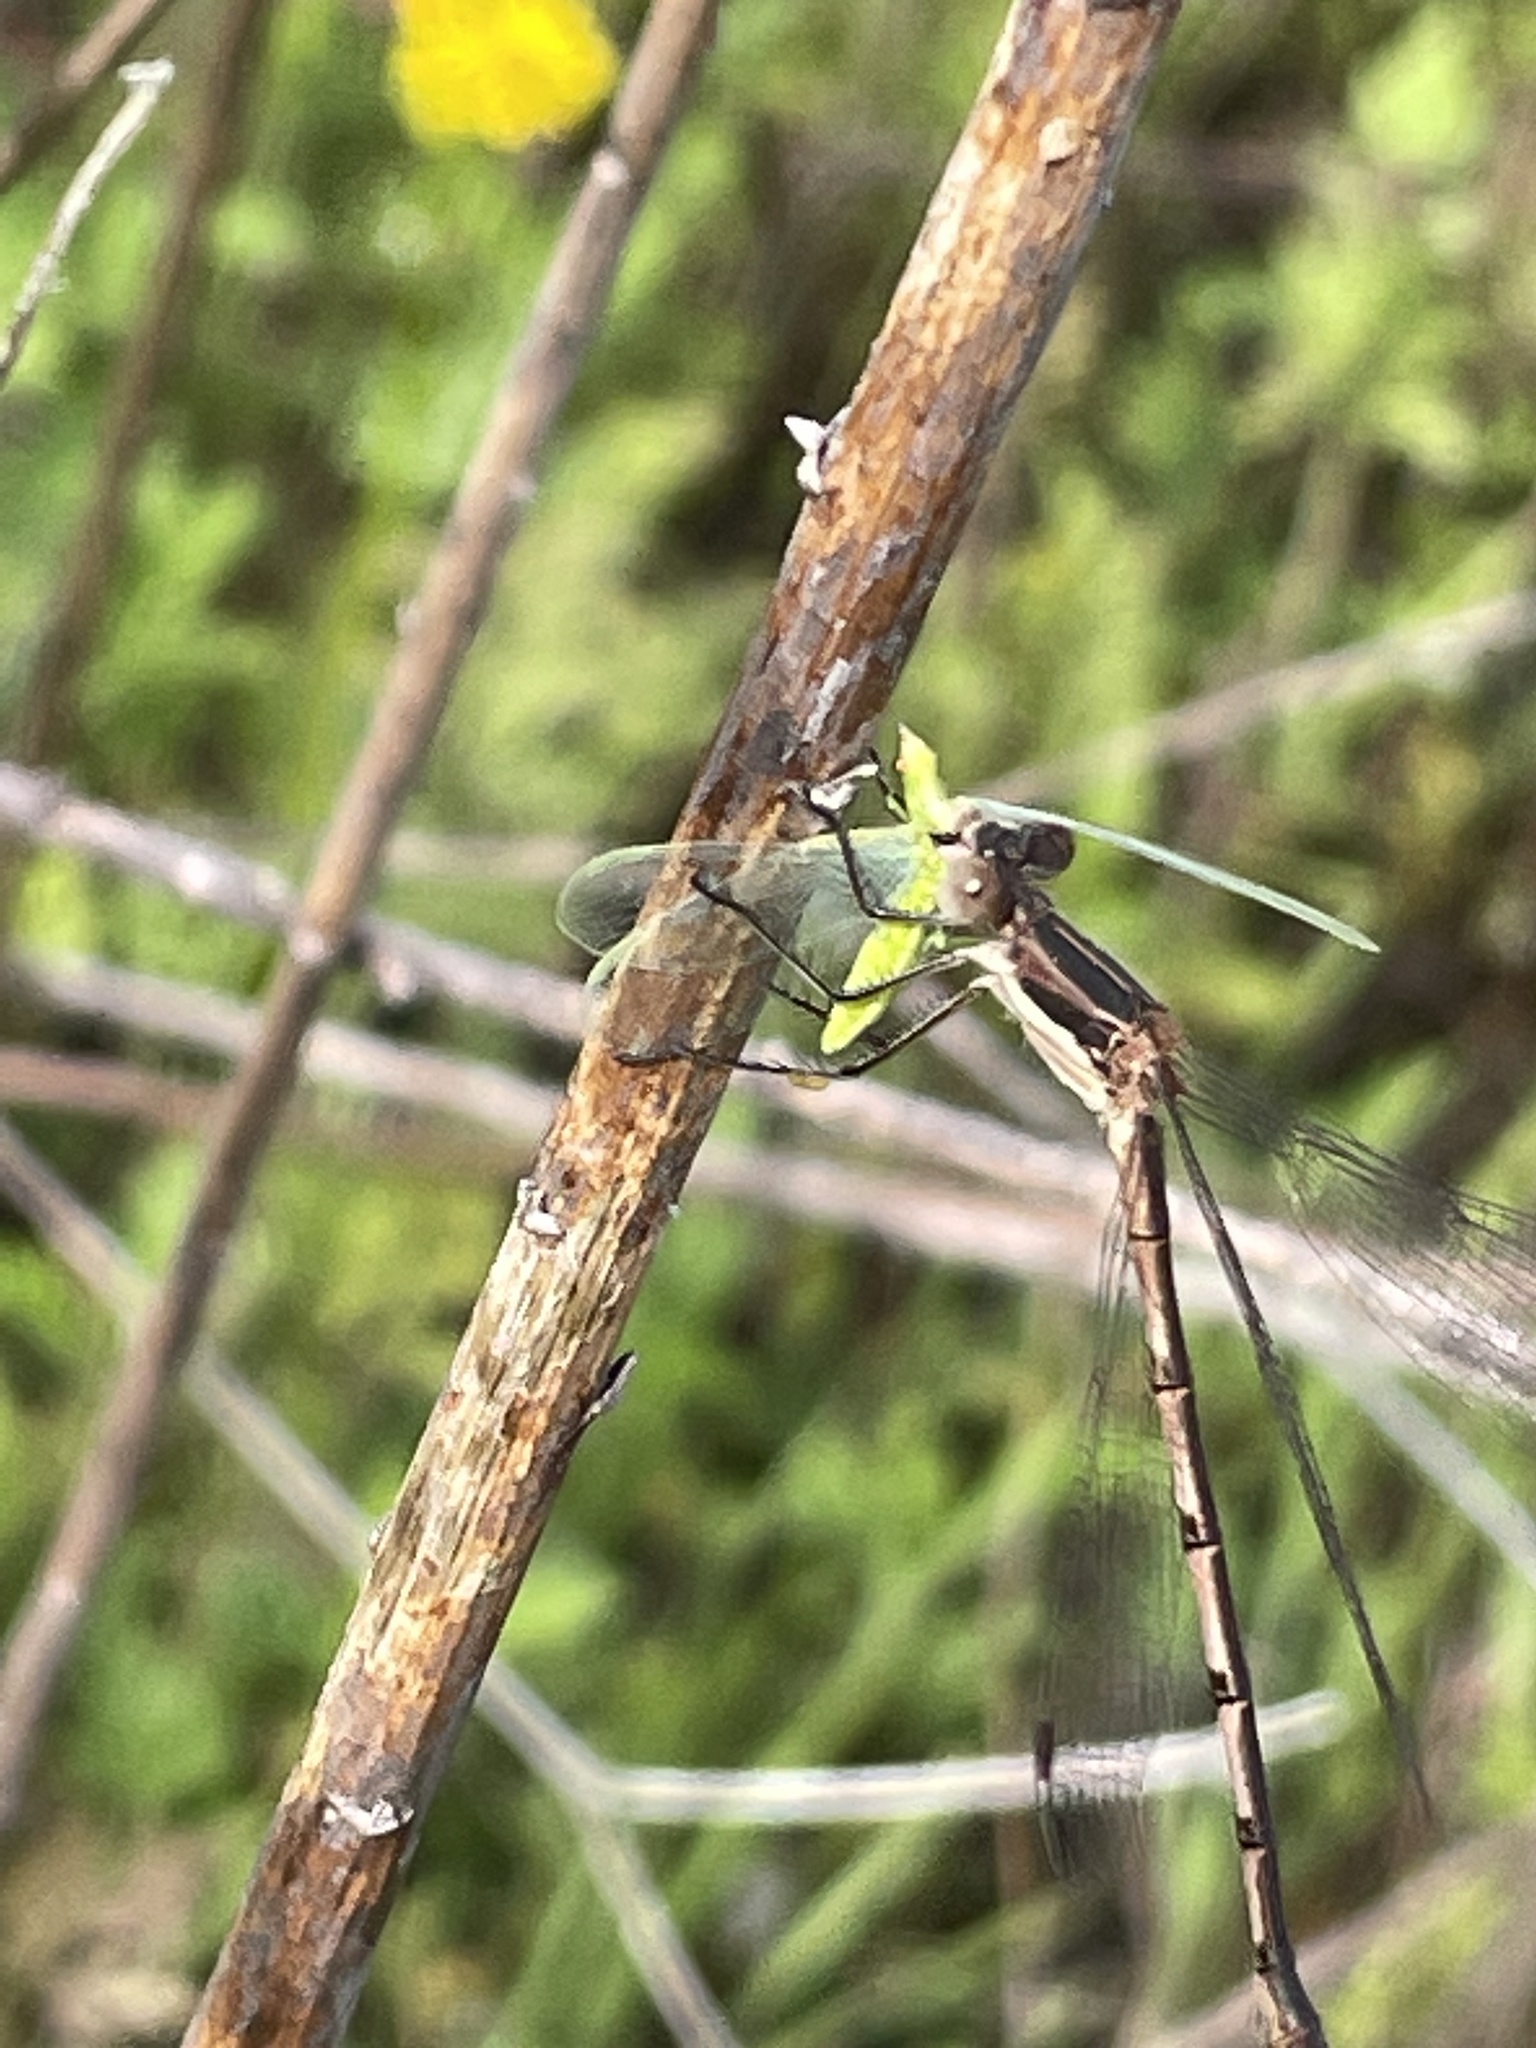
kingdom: Animalia
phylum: Arthropoda
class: Insecta
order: Odonata
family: Lestidae
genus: Lestes
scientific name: Lestes australis
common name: Southern spreadwing
